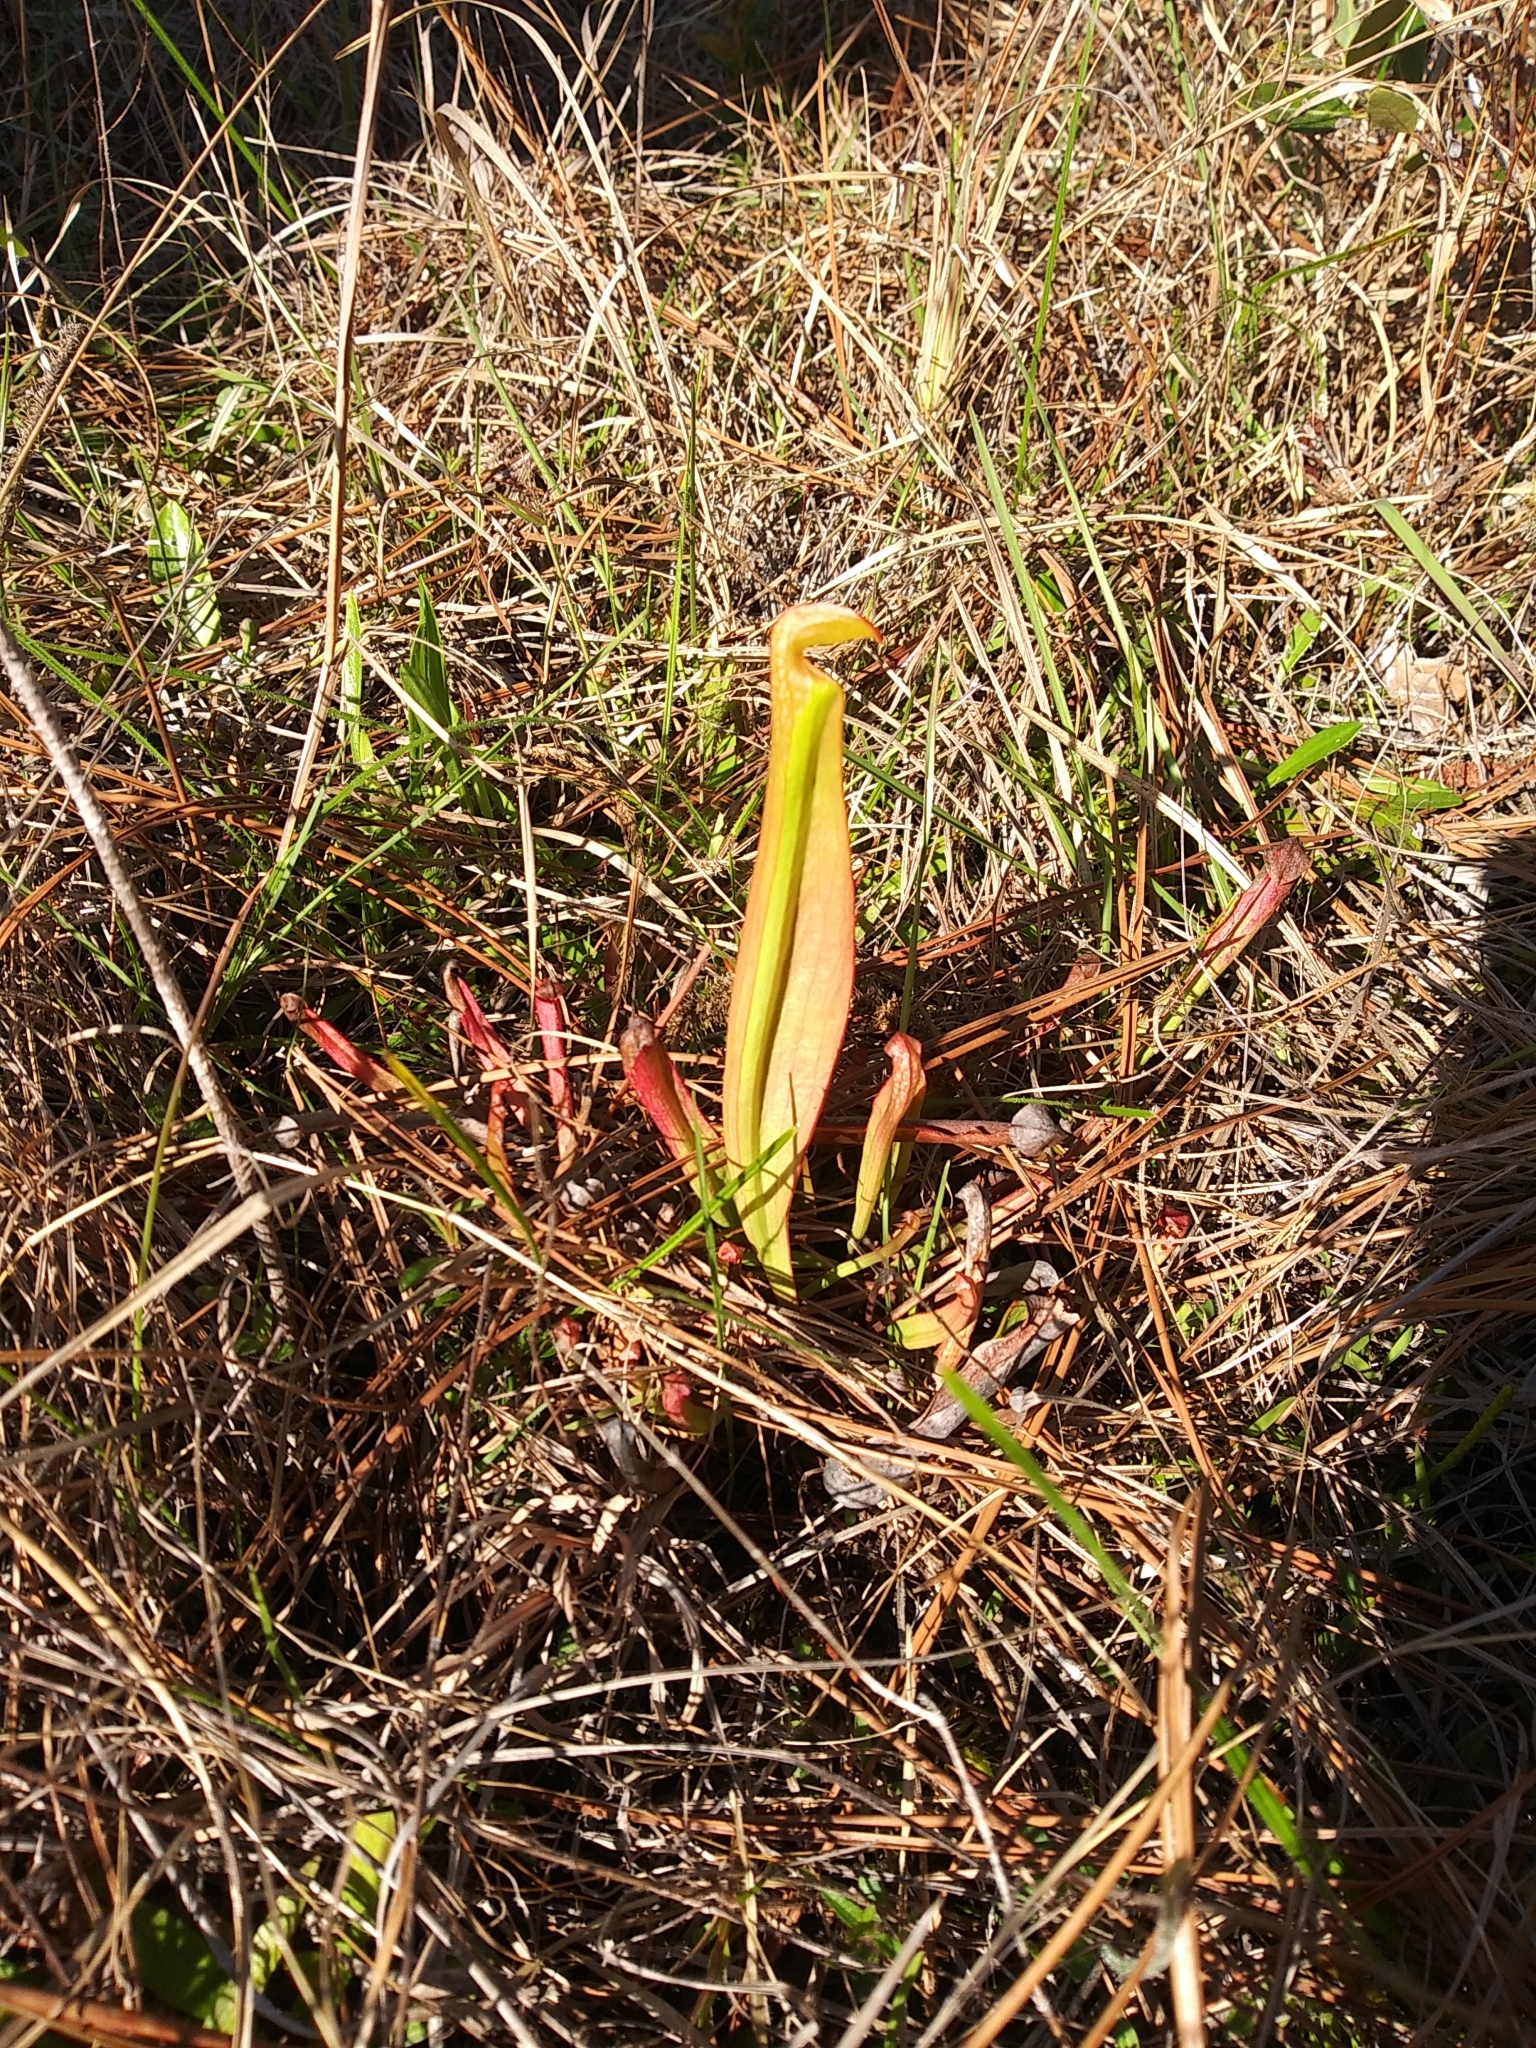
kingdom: Plantae
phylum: Tracheophyta
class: Magnoliopsida
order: Ericales
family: Sarraceniaceae
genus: Sarracenia
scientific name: Sarracenia minor
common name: Rainhat-trumpet
